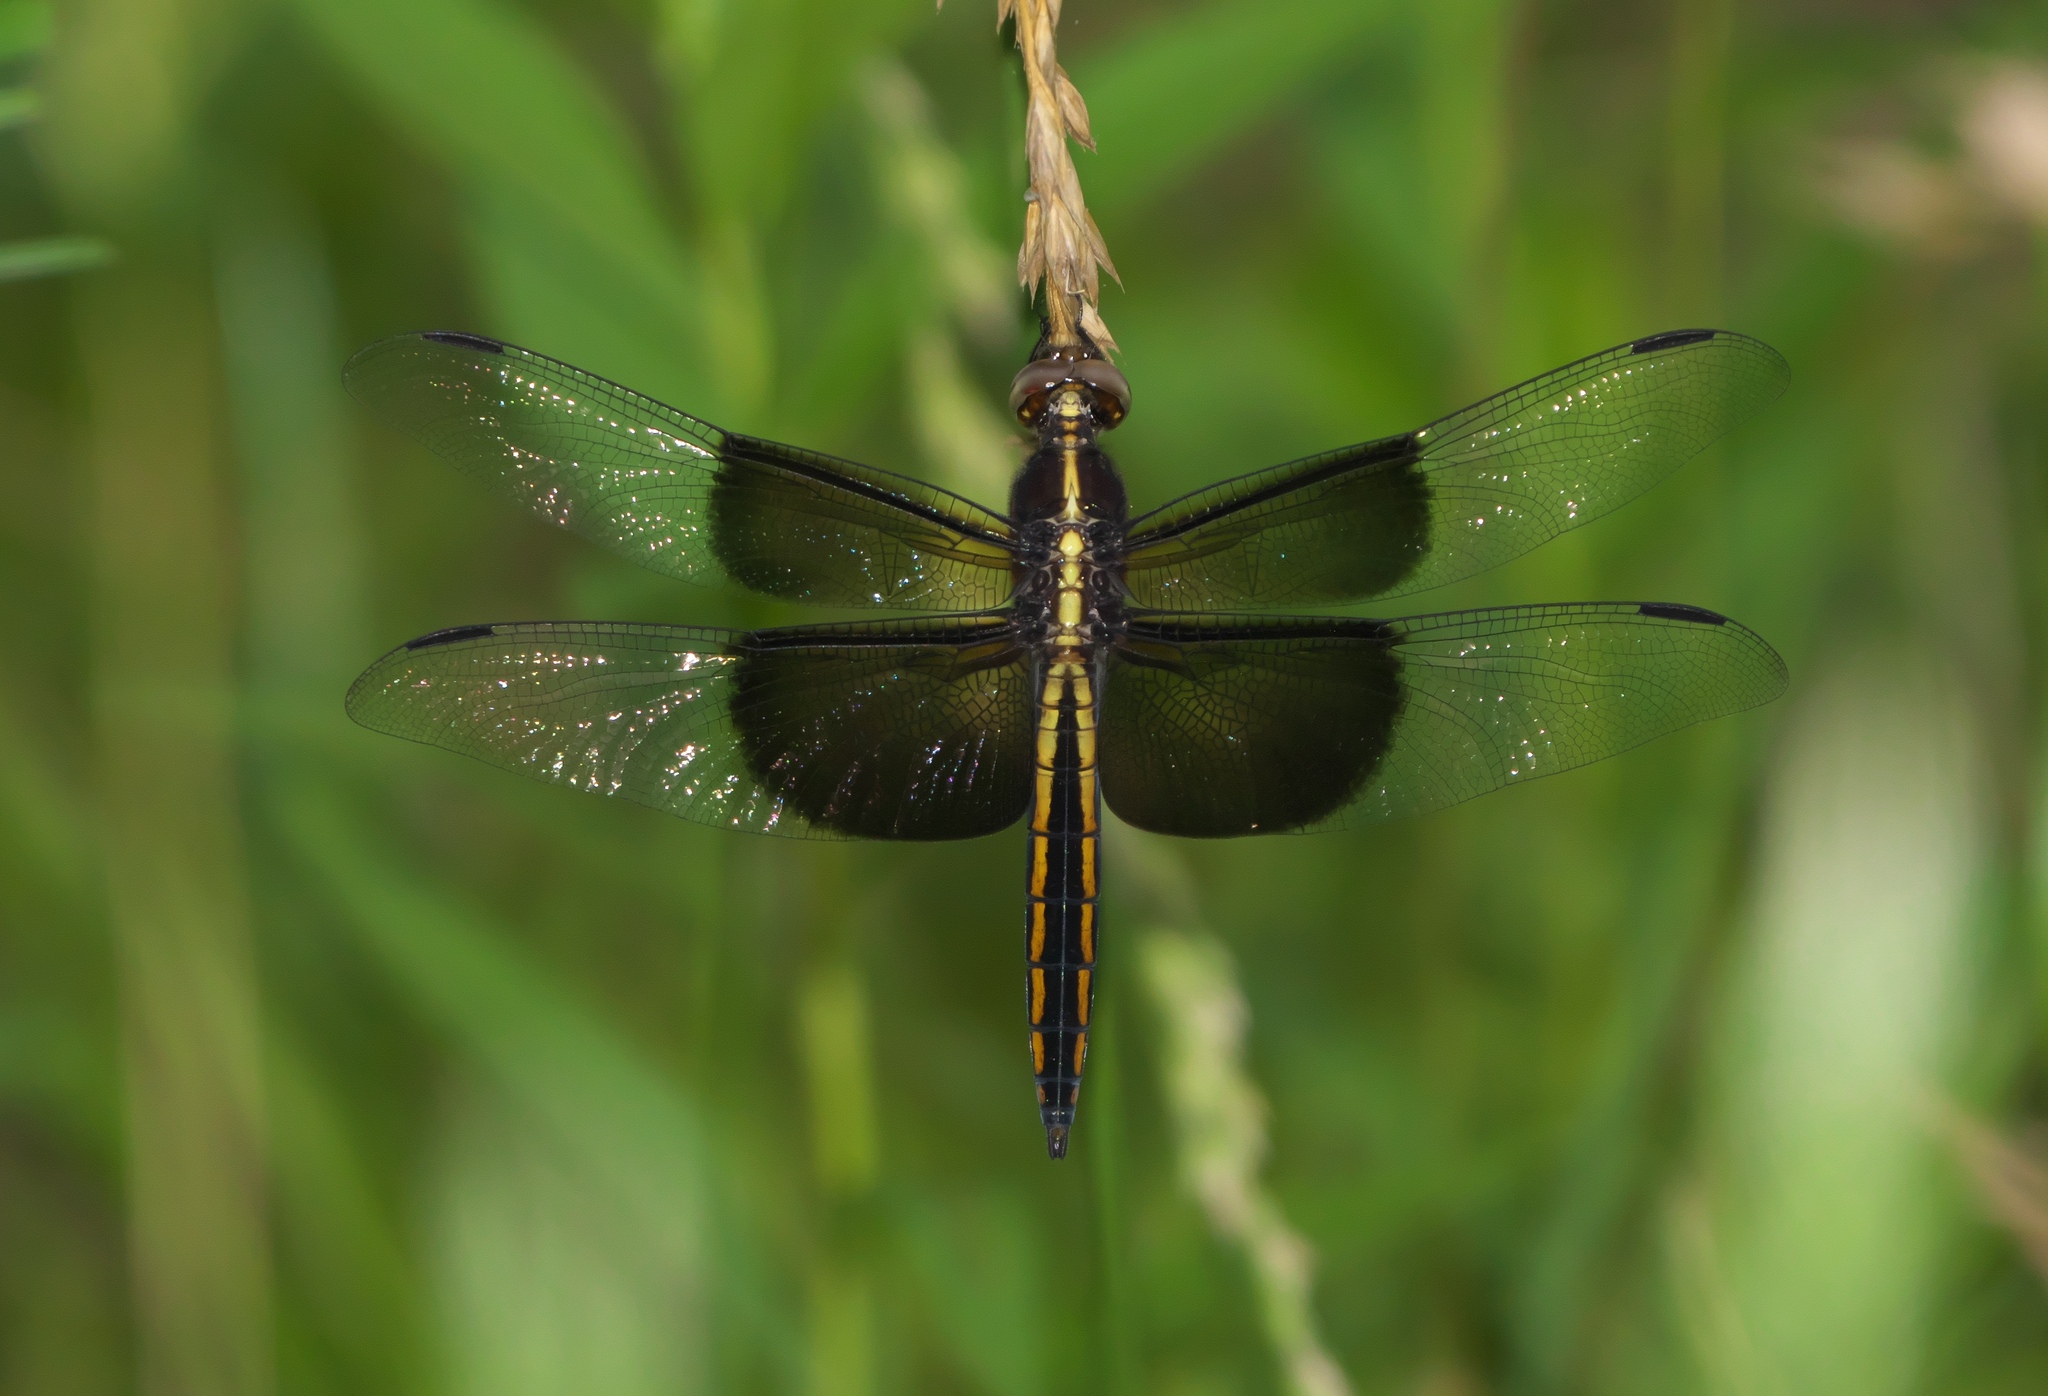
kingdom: Animalia
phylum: Arthropoda
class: Insecta
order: Odonata
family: Libellulidae
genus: Libellula
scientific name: Libellula luctuosa
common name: Widow skimmer
